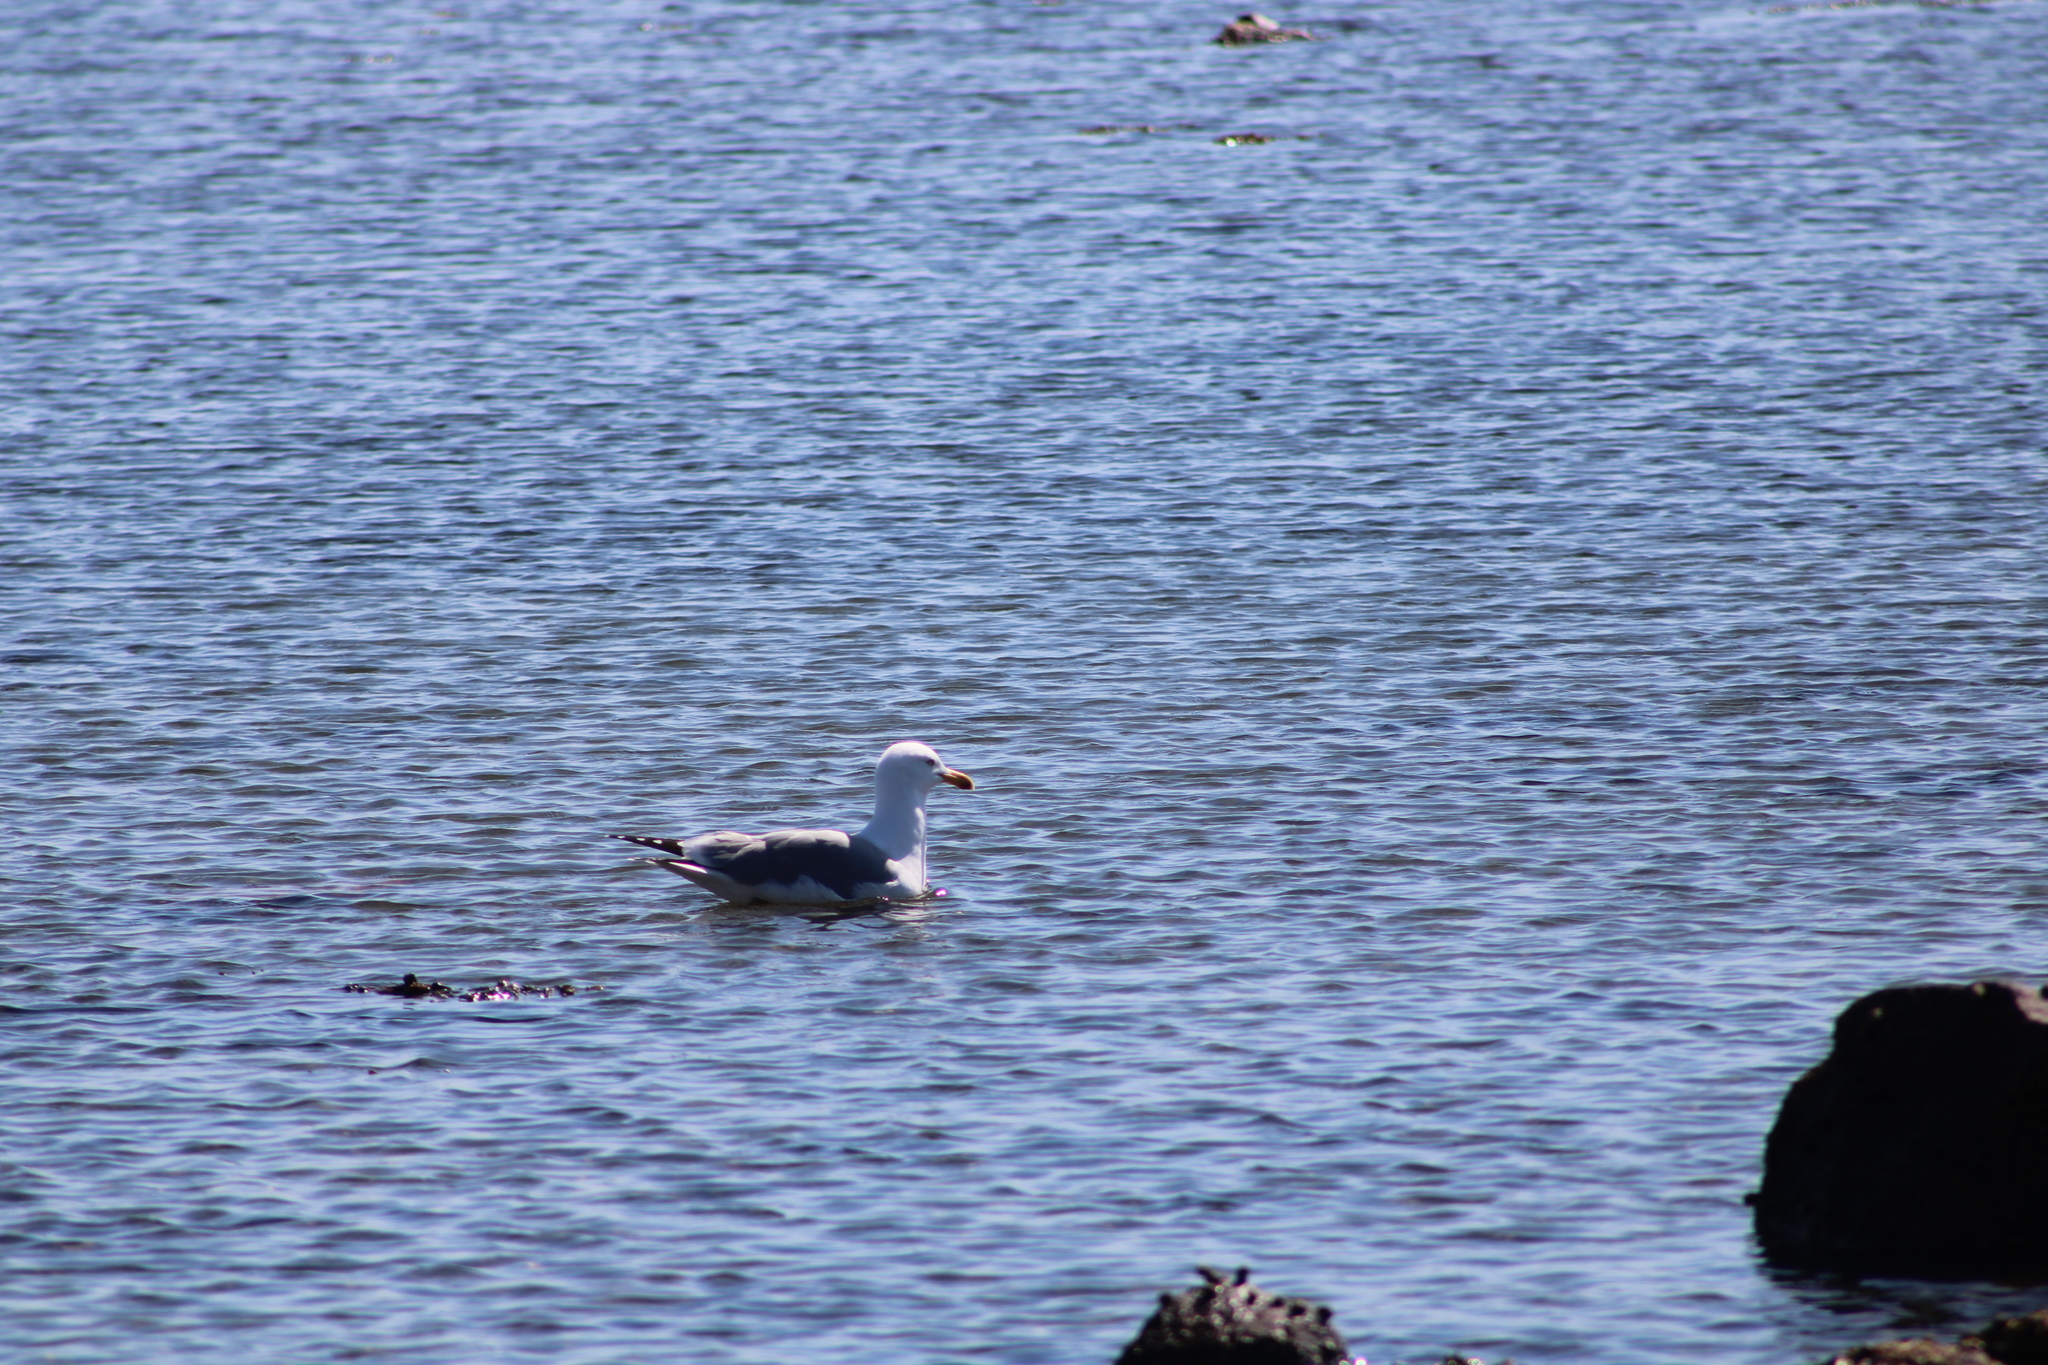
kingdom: Animalia
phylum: Chordata
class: Aves
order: Charadriiformes
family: Laridae
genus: Larus
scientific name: Larus argentatus
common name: Herring gull
